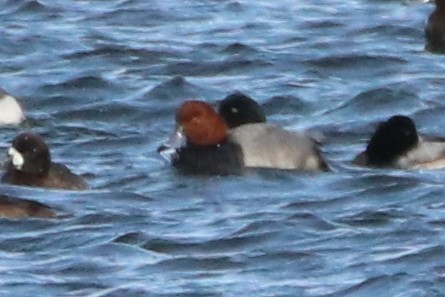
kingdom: Animalia
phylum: Chordata
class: Aves
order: Anseriformes
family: Anatidae
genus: Aythya
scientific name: Aythya americana
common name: Redhead
